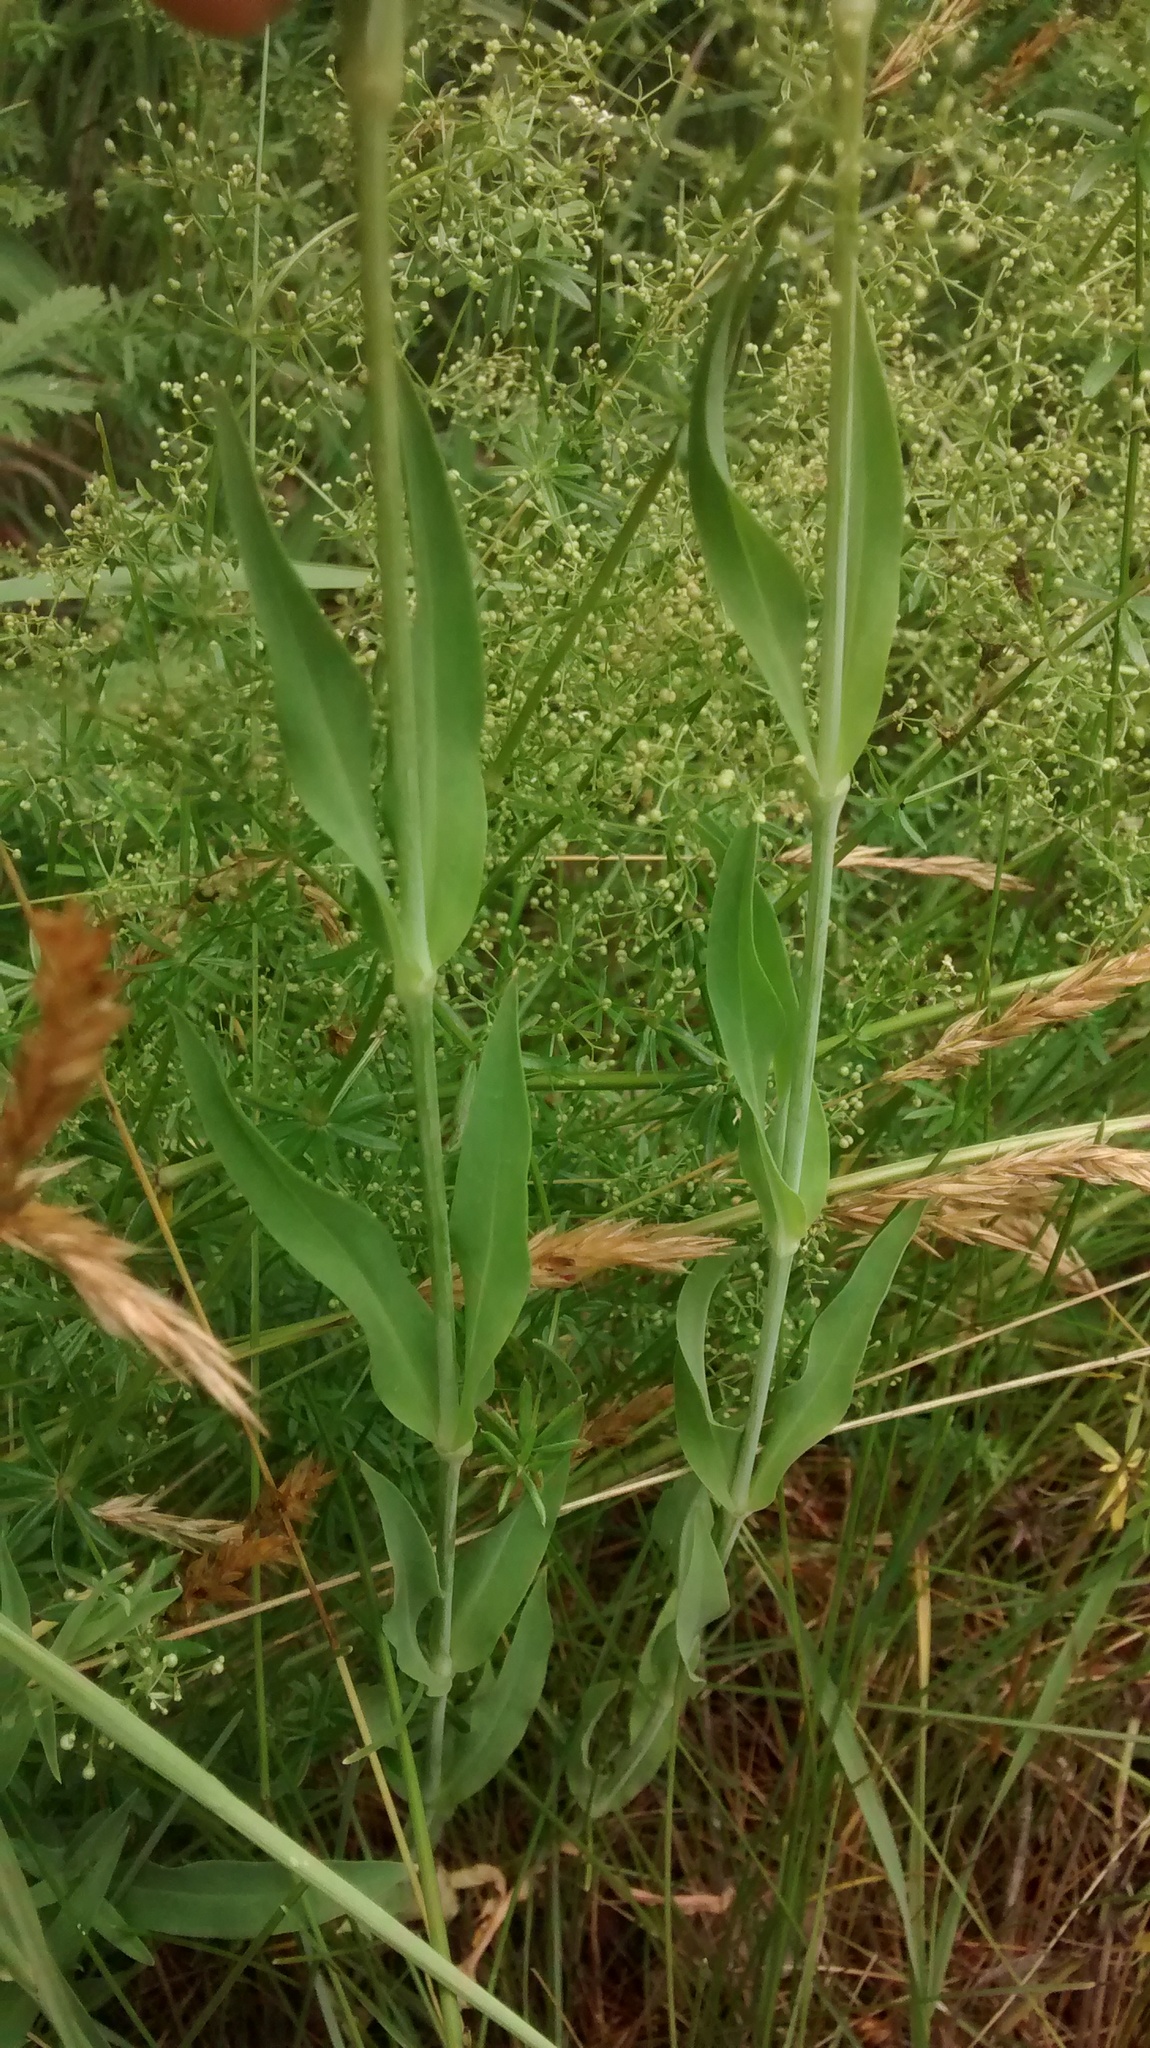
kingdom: Plantae
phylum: Tracheophyta
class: Magnoliopsida
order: Caryophyllales
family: Caryophyllaceae
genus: Silene
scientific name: Silene vulgaris
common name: Bladder campion
